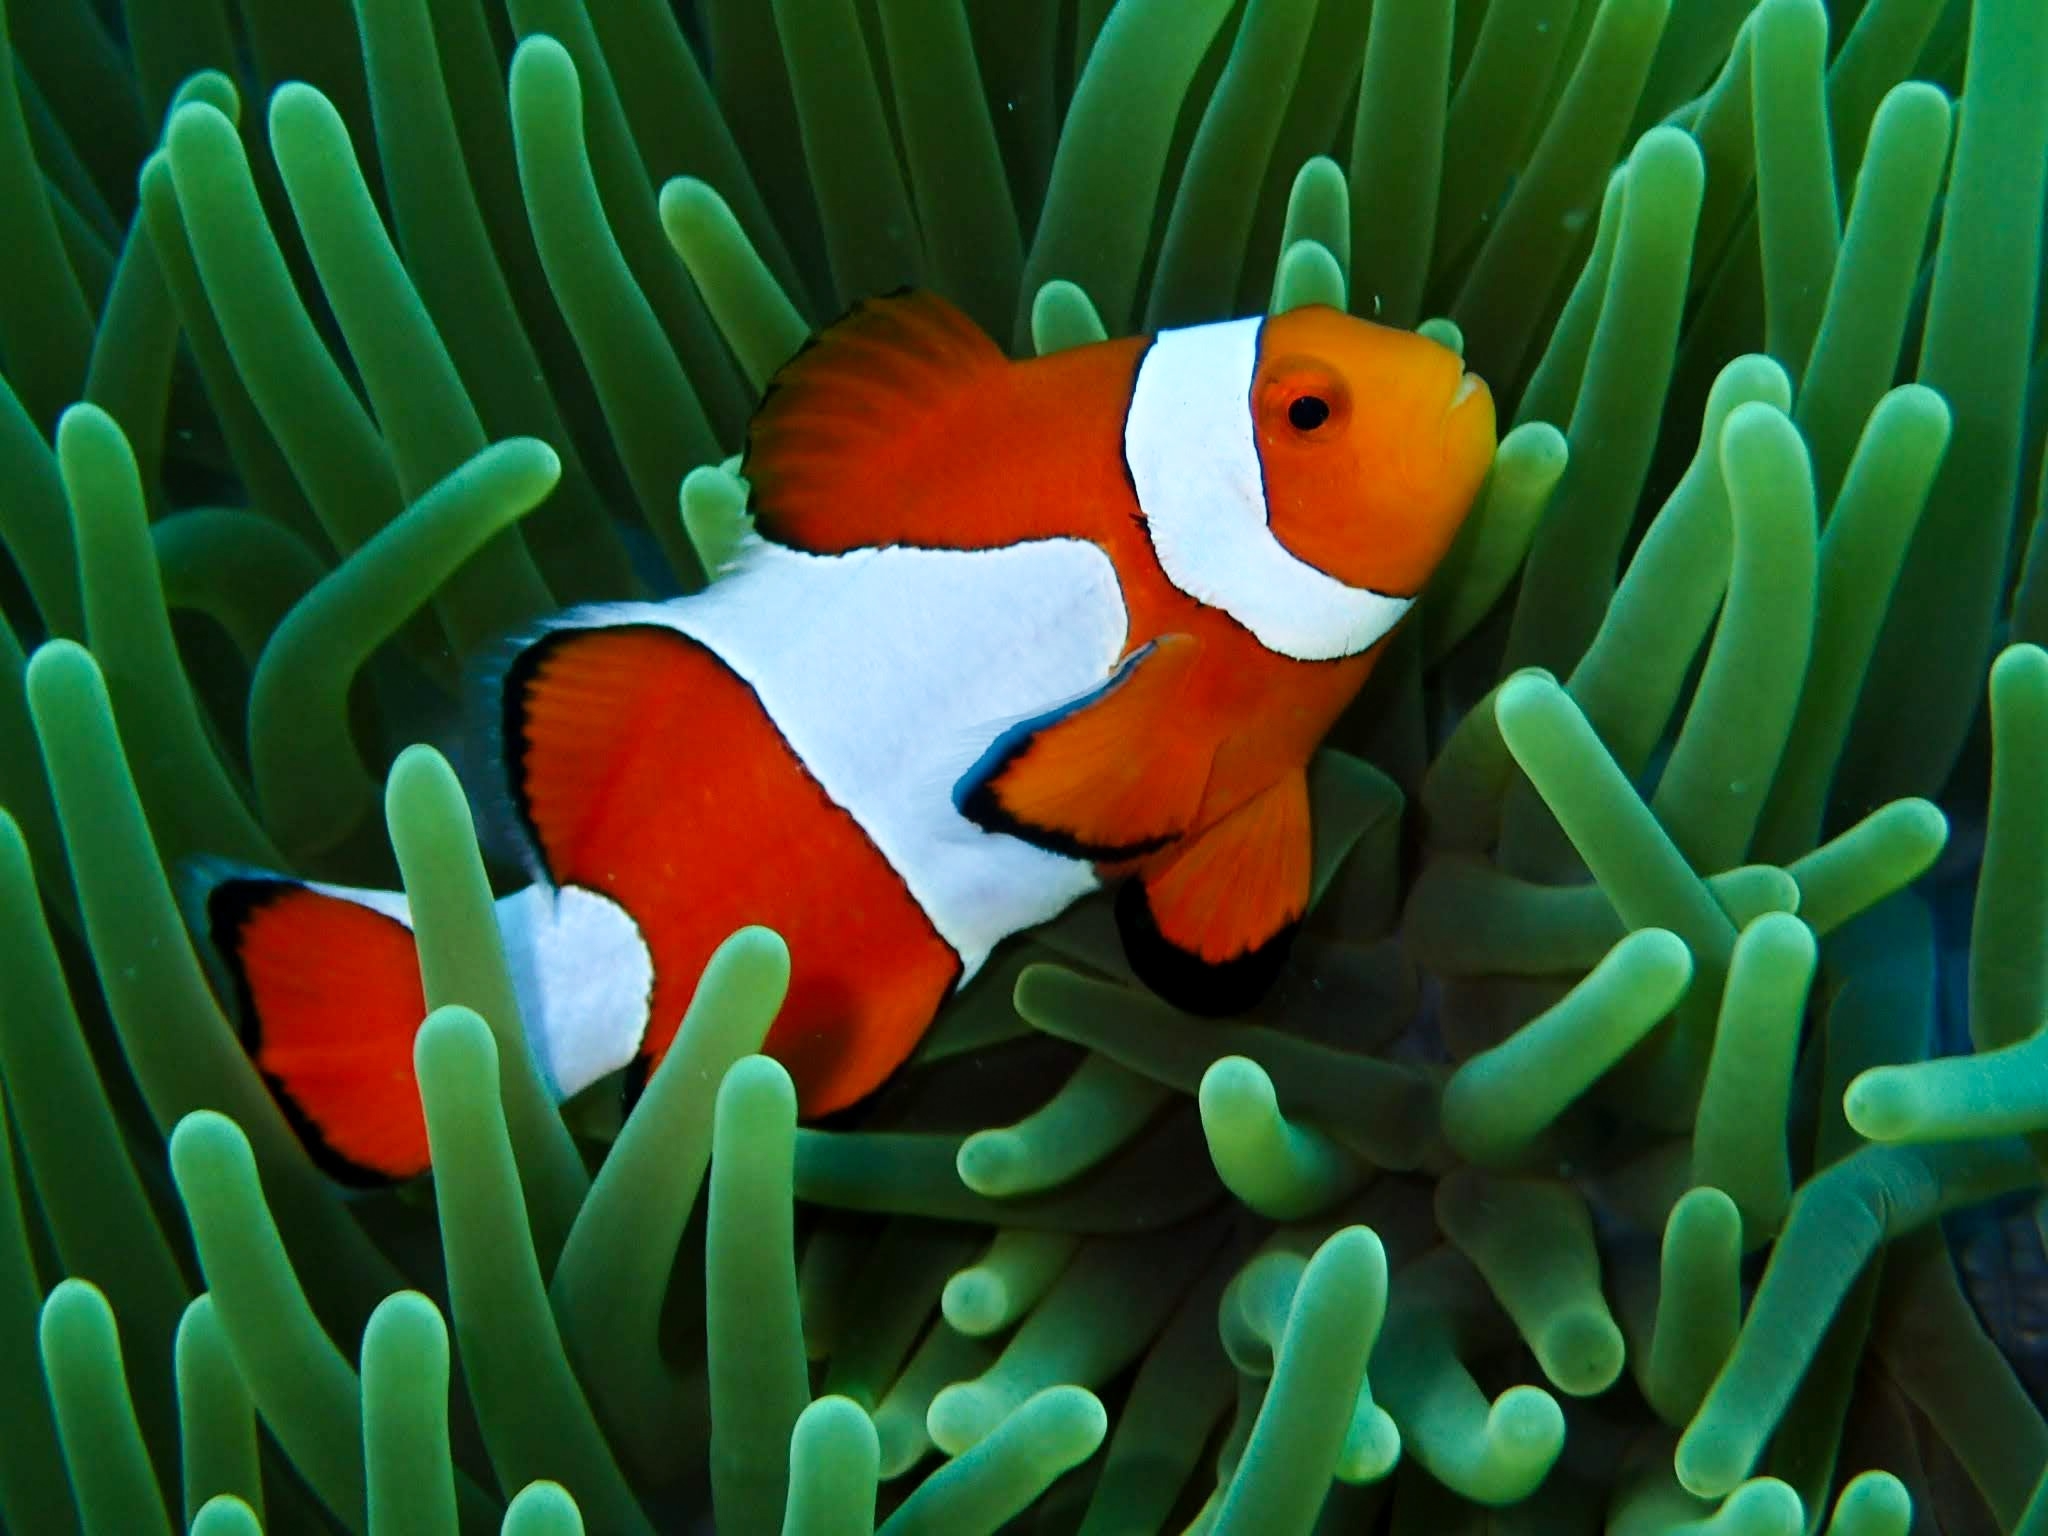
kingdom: Animalia
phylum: Chordata
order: Perciformes
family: Pomacentridae
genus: Amphiprion
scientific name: Amphiprion ocellaris
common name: Clown anemonefish
